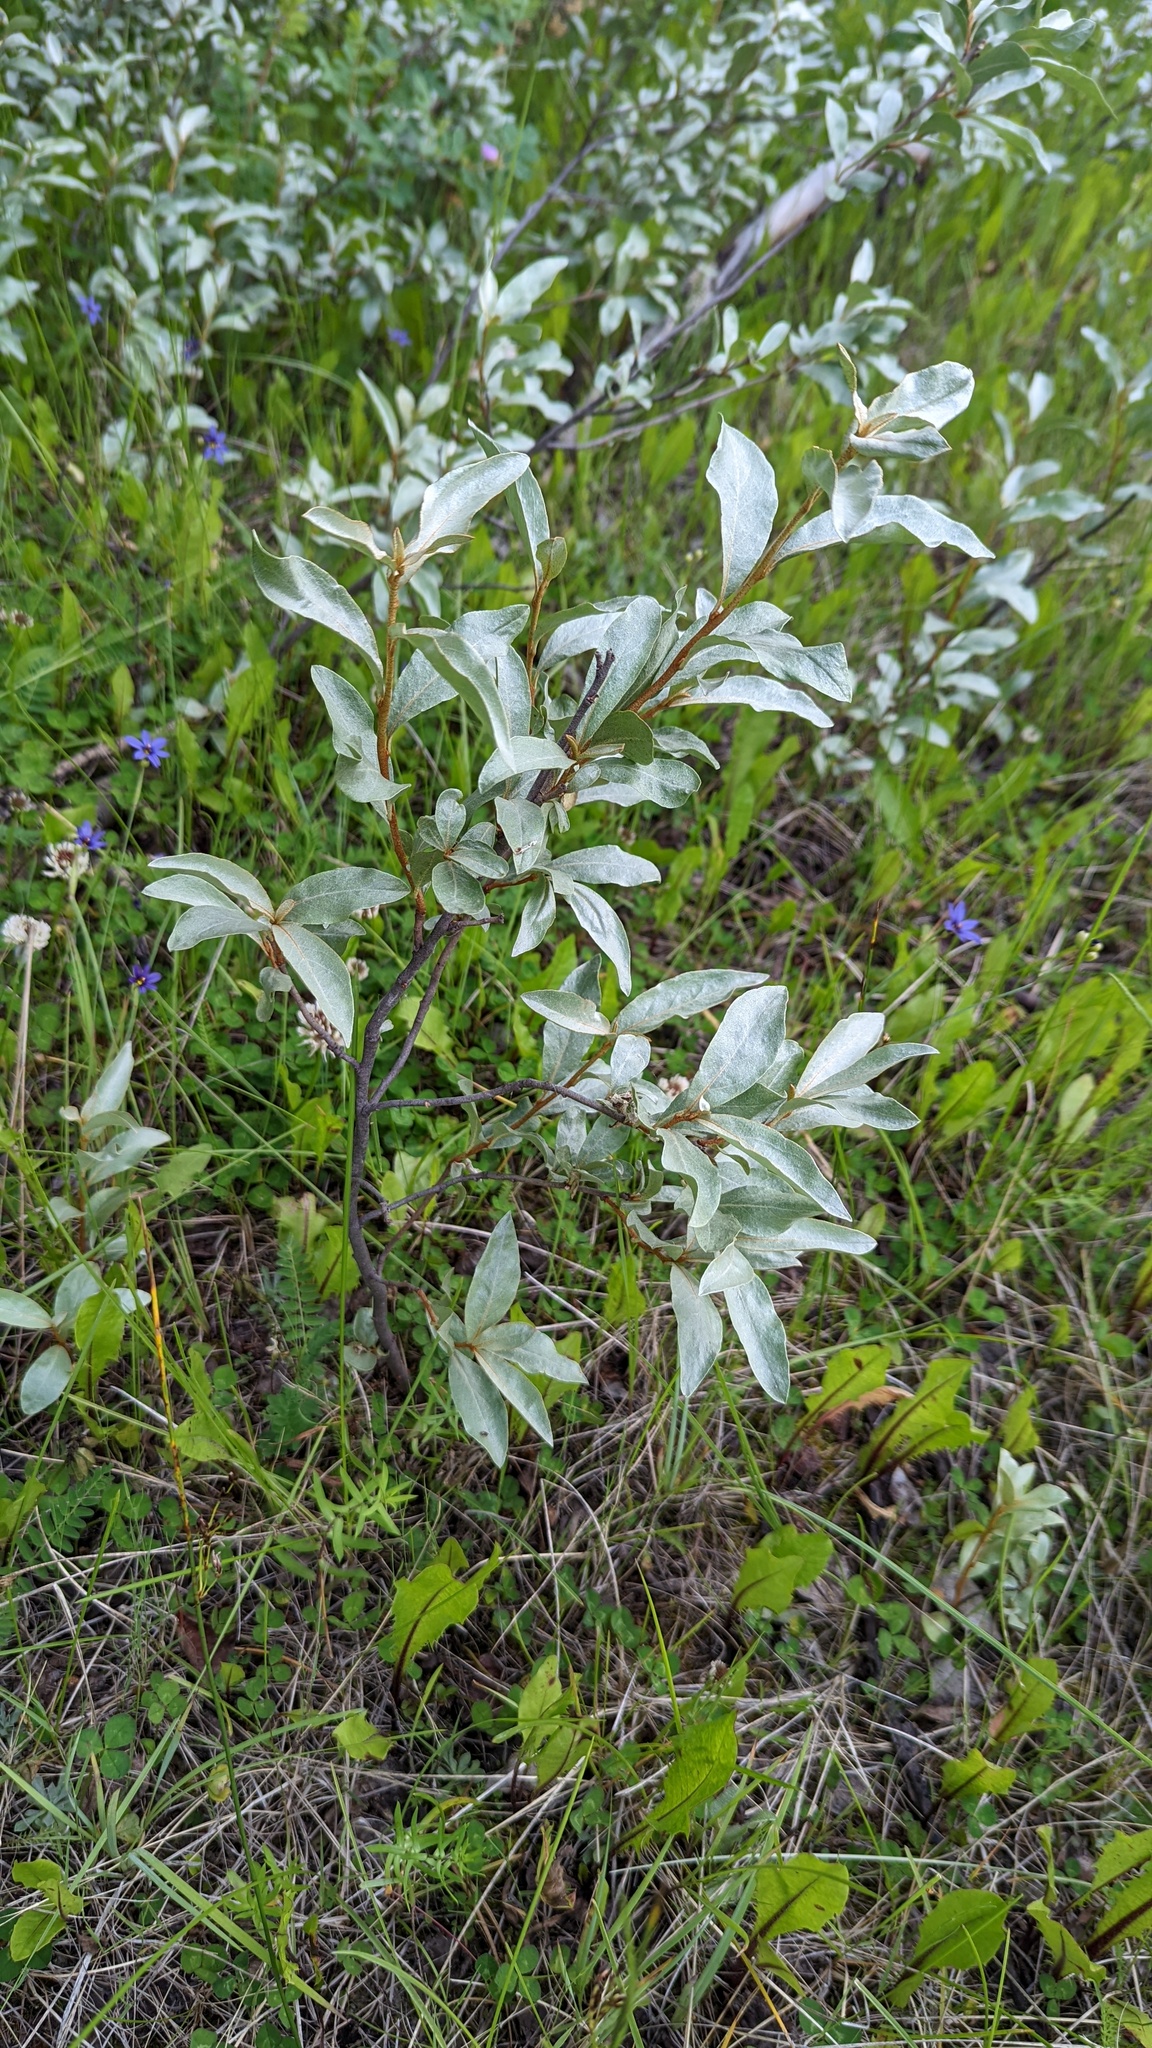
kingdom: Plantae
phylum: Tracheophyta
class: Magnoliopsida
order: Rosales
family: Elaeagnaceae
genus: Elaeagnus
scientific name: Elaeagnus commutata
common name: Silverberry
